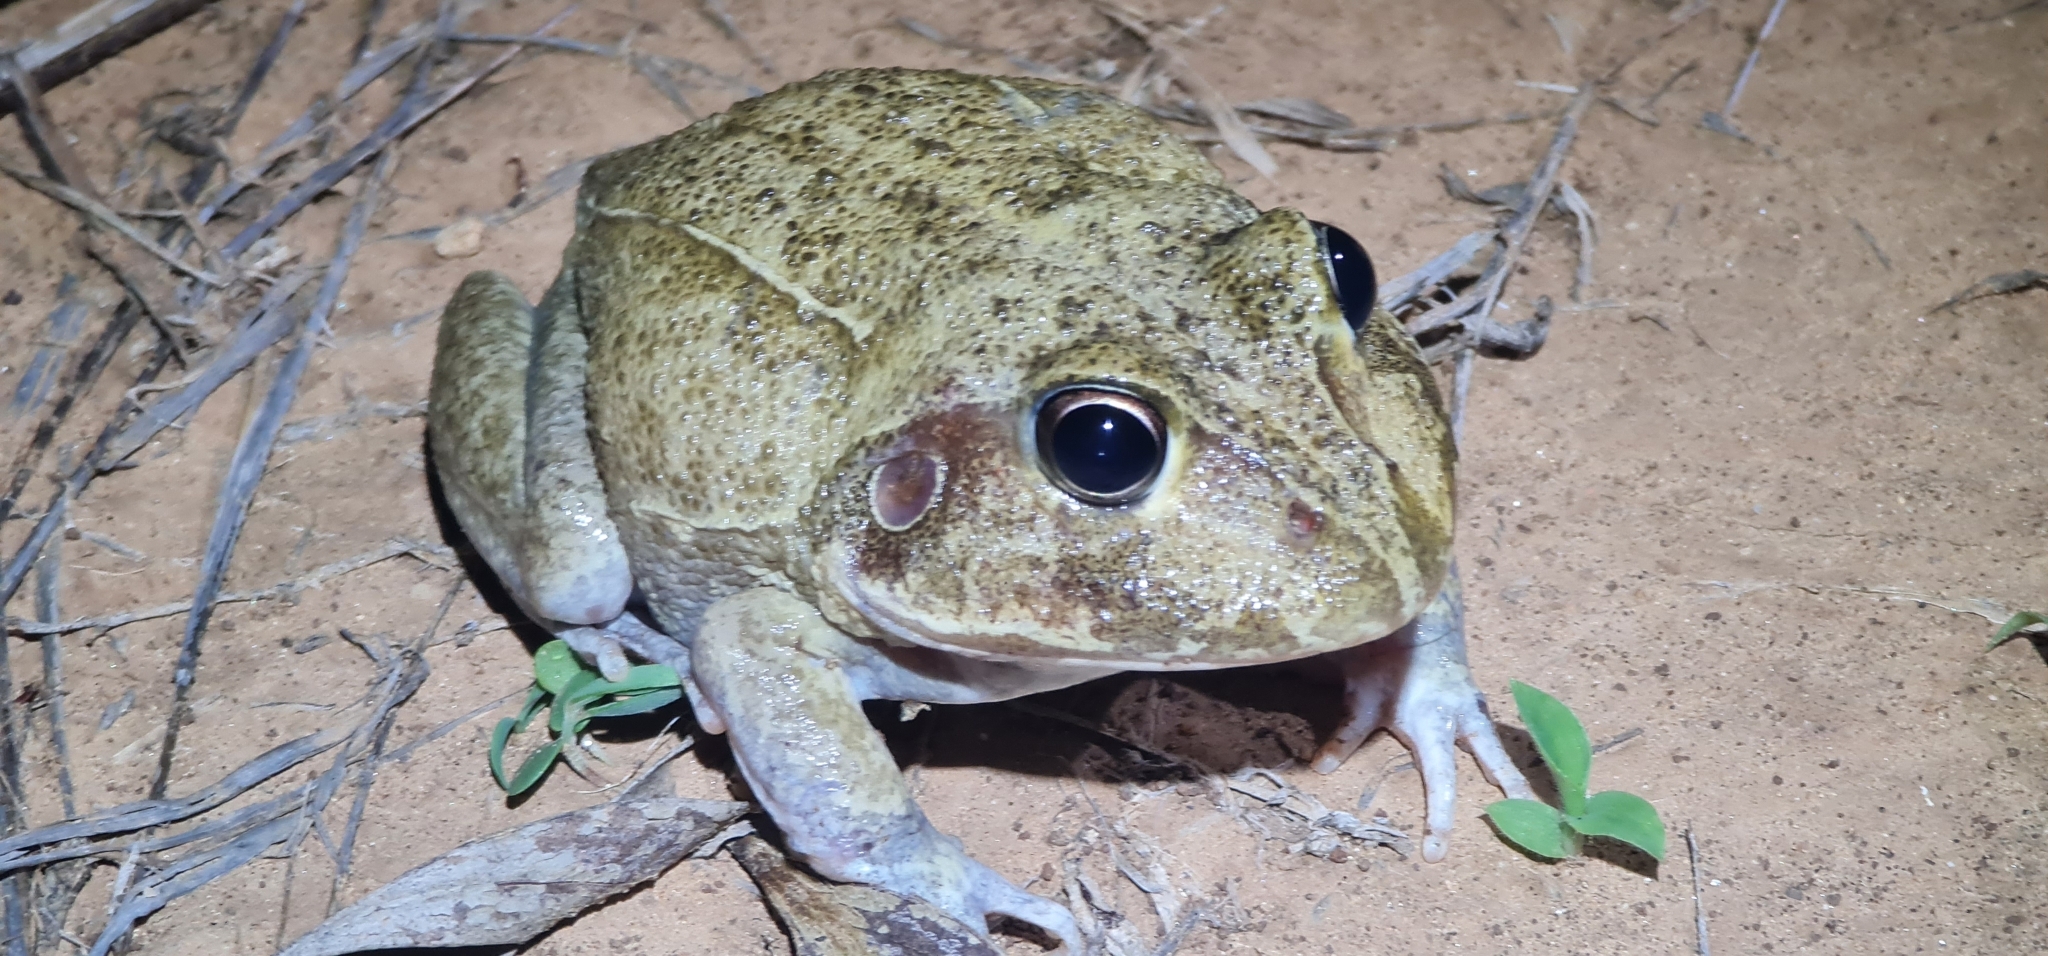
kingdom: Animalia
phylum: Chordata
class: Amphibia
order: Anura
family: Pelodryadidae
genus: Ranoidea
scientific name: Ranoidea novaehollandiae
